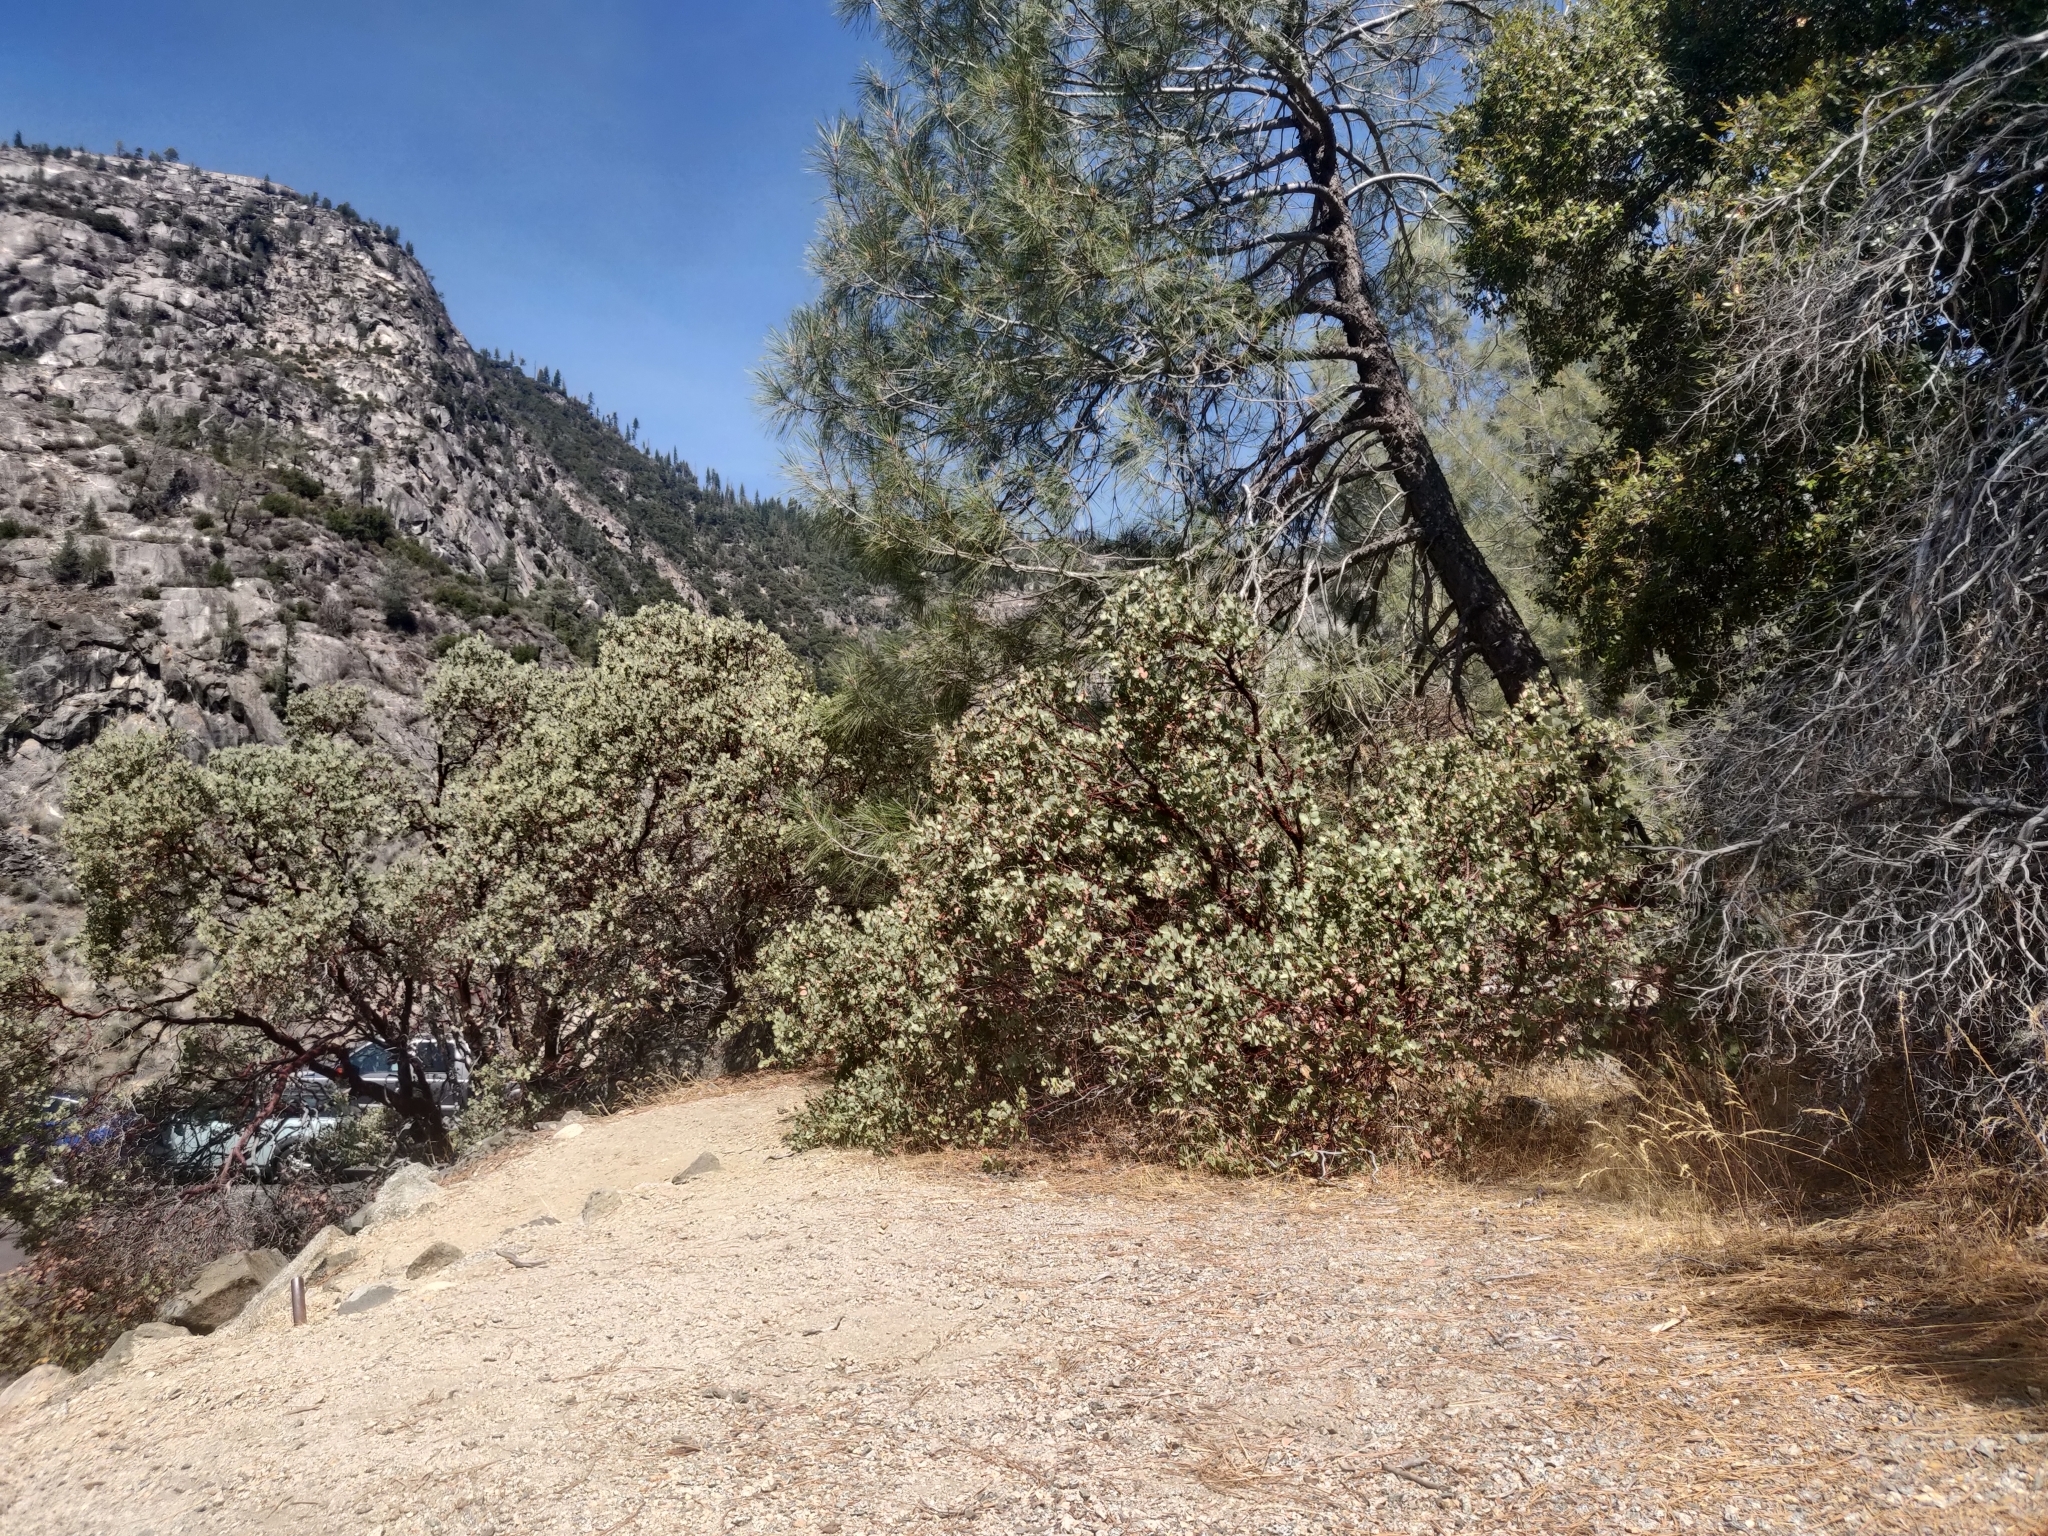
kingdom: Plantae
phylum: Tracheophyta
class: Magnoliopsida
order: Ericales
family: Ericaceae
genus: Arctostaphylos
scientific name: Arctostaphylos viscida
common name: White-leaf manzanita
